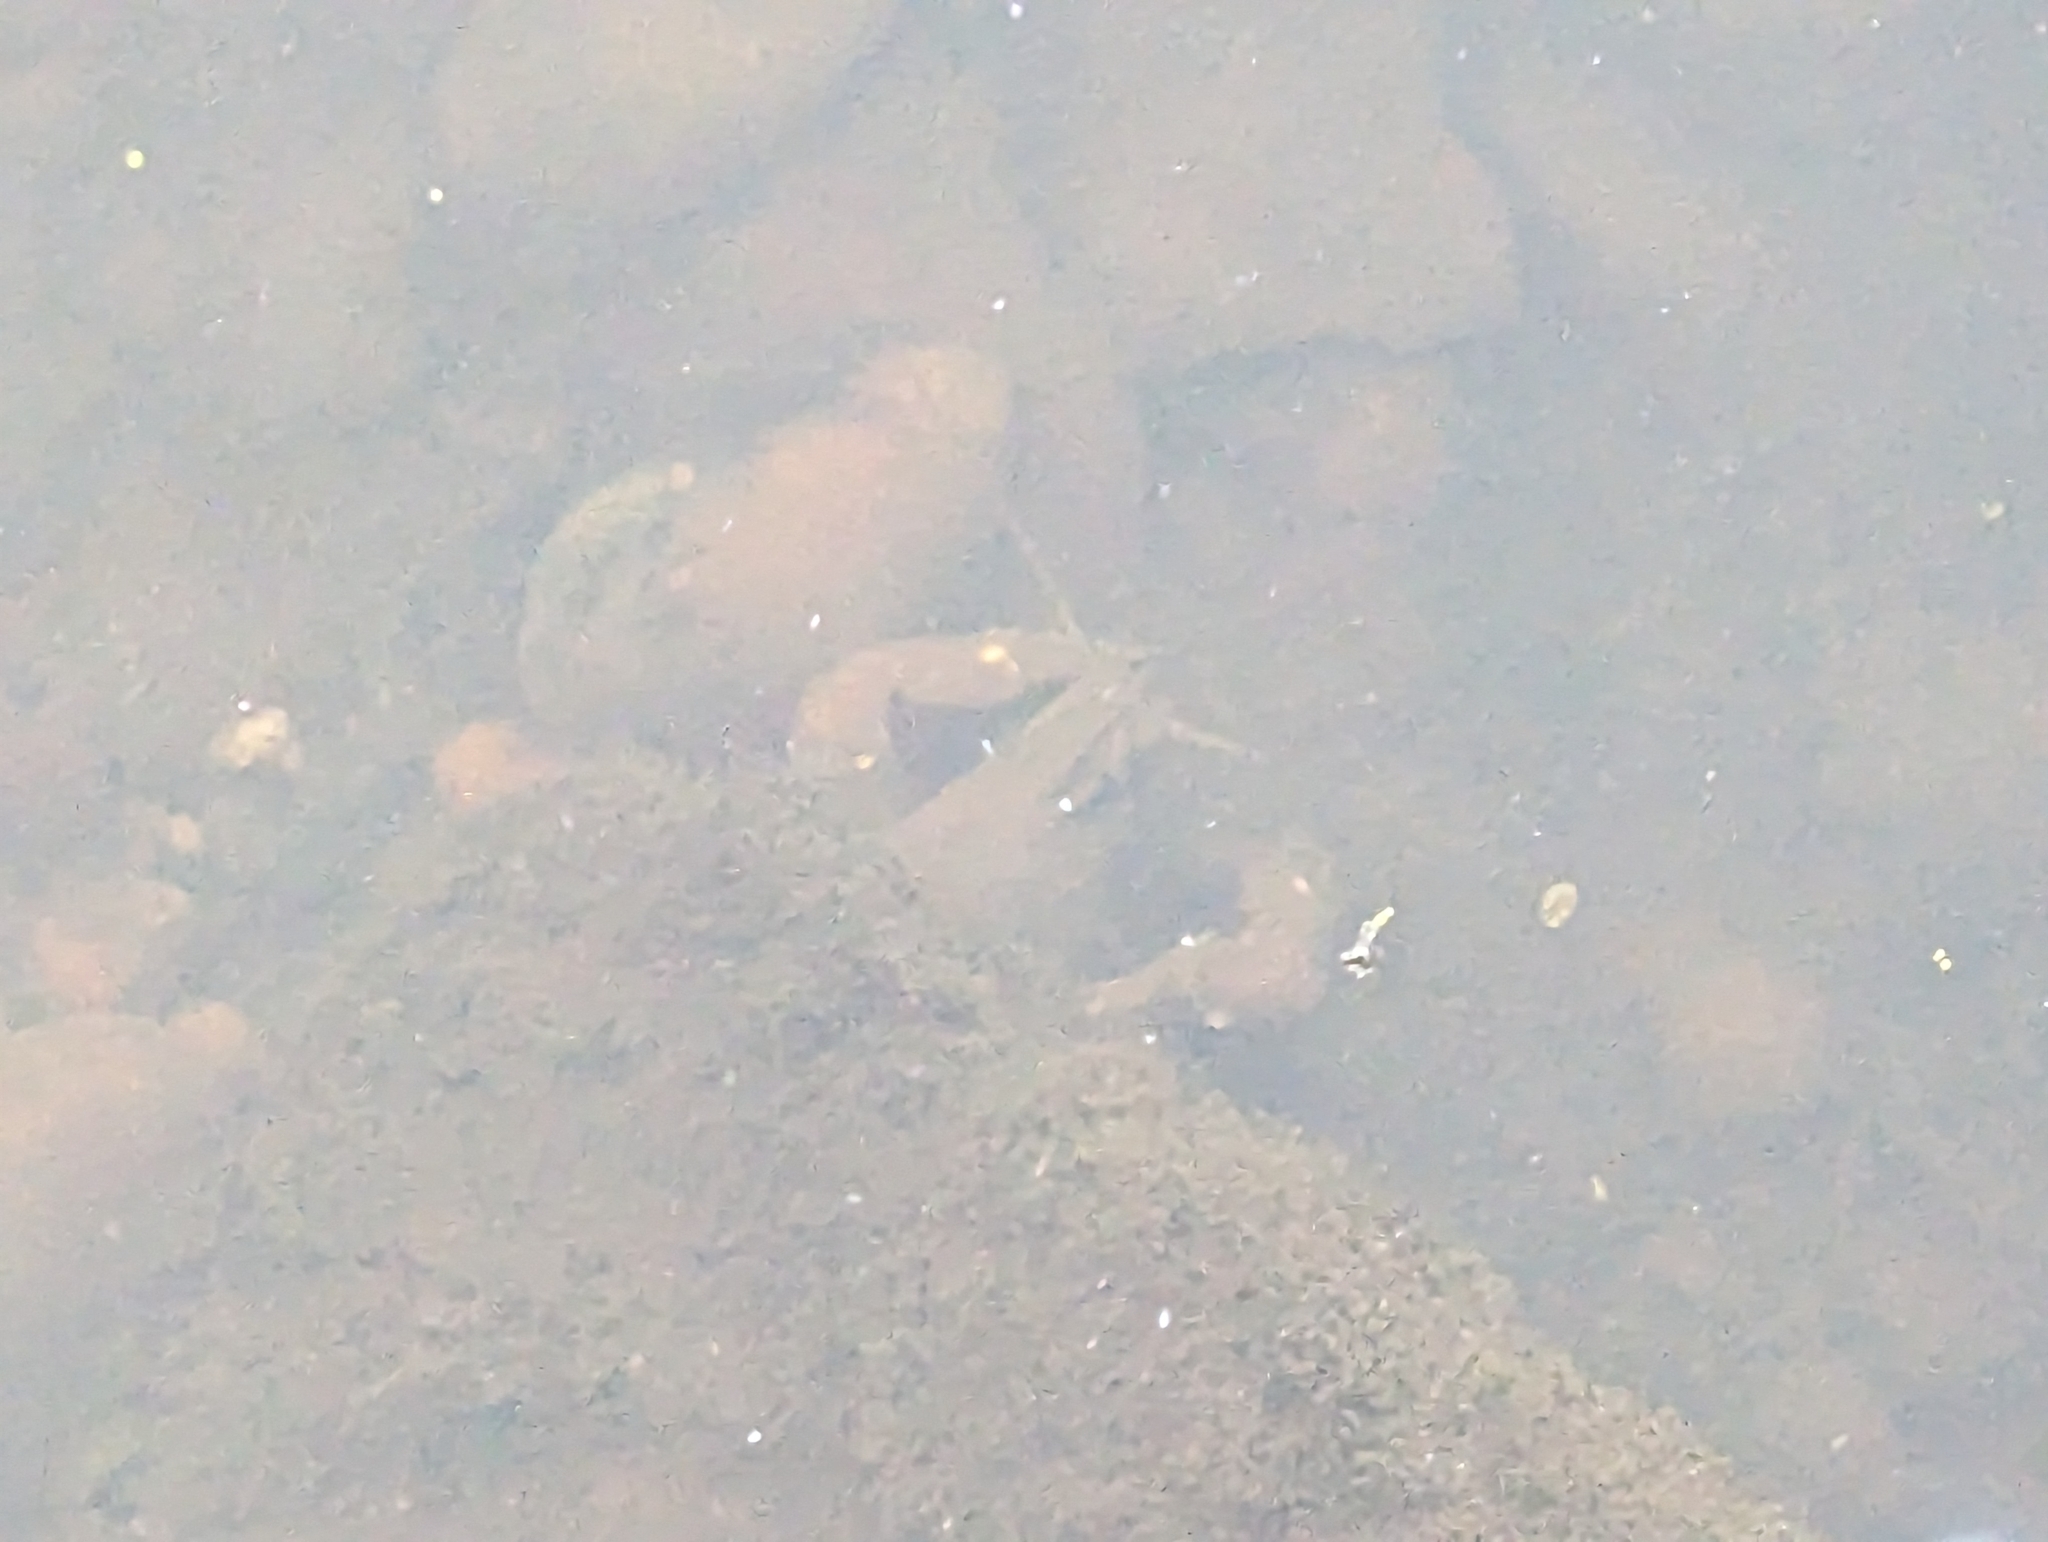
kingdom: Animalia
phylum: Arthropoda
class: Malacostraca
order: Decapoda
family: Astacidae
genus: Pacifastacus
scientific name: Pacifastacus leniusculus
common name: Signal crayfish
